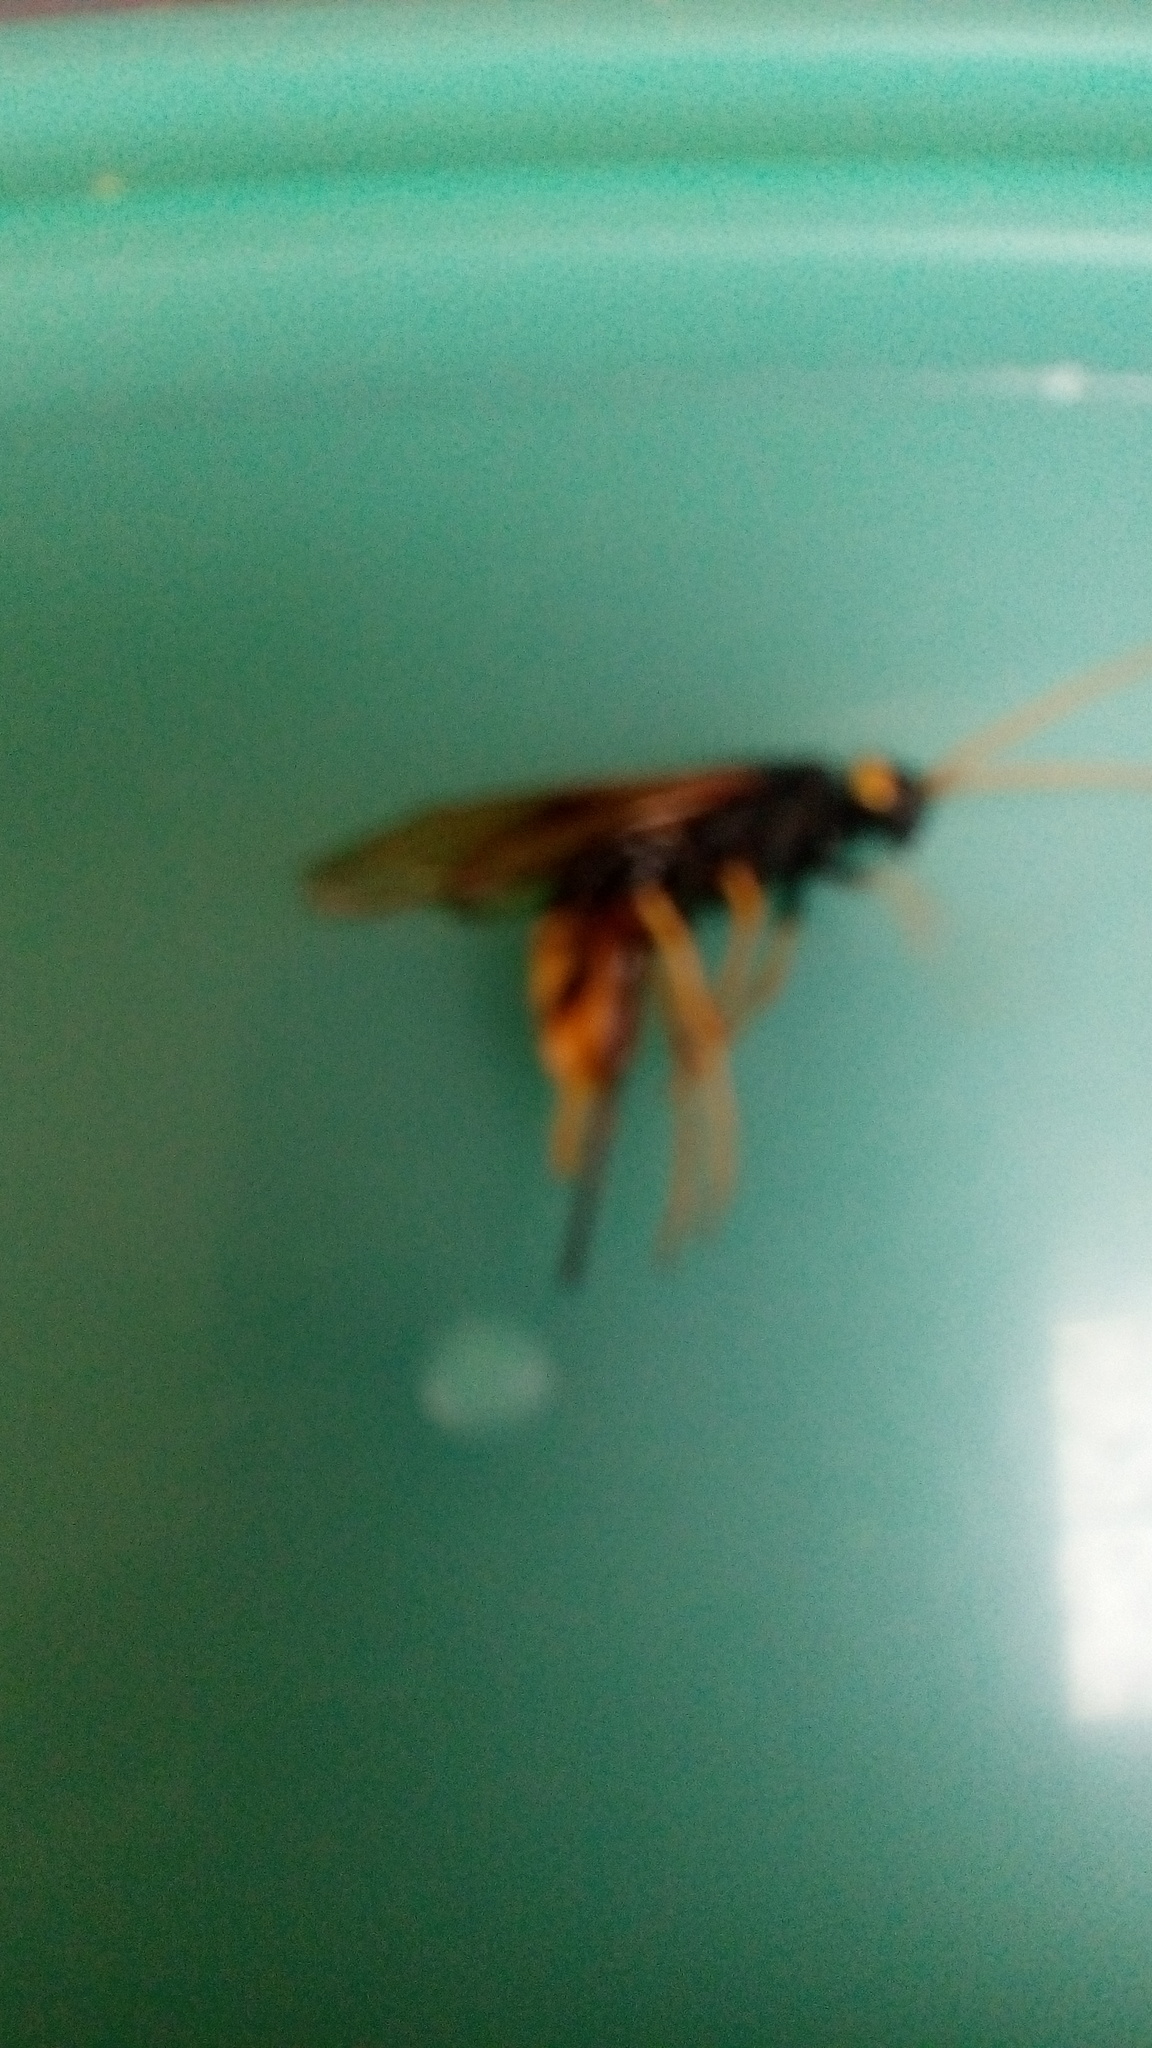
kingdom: Animalia
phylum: Arthropoda
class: Insecta
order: Hymenoptera
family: Siricidae
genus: Urocerus
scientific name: Urocerus gigas
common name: Giant woodwasp
